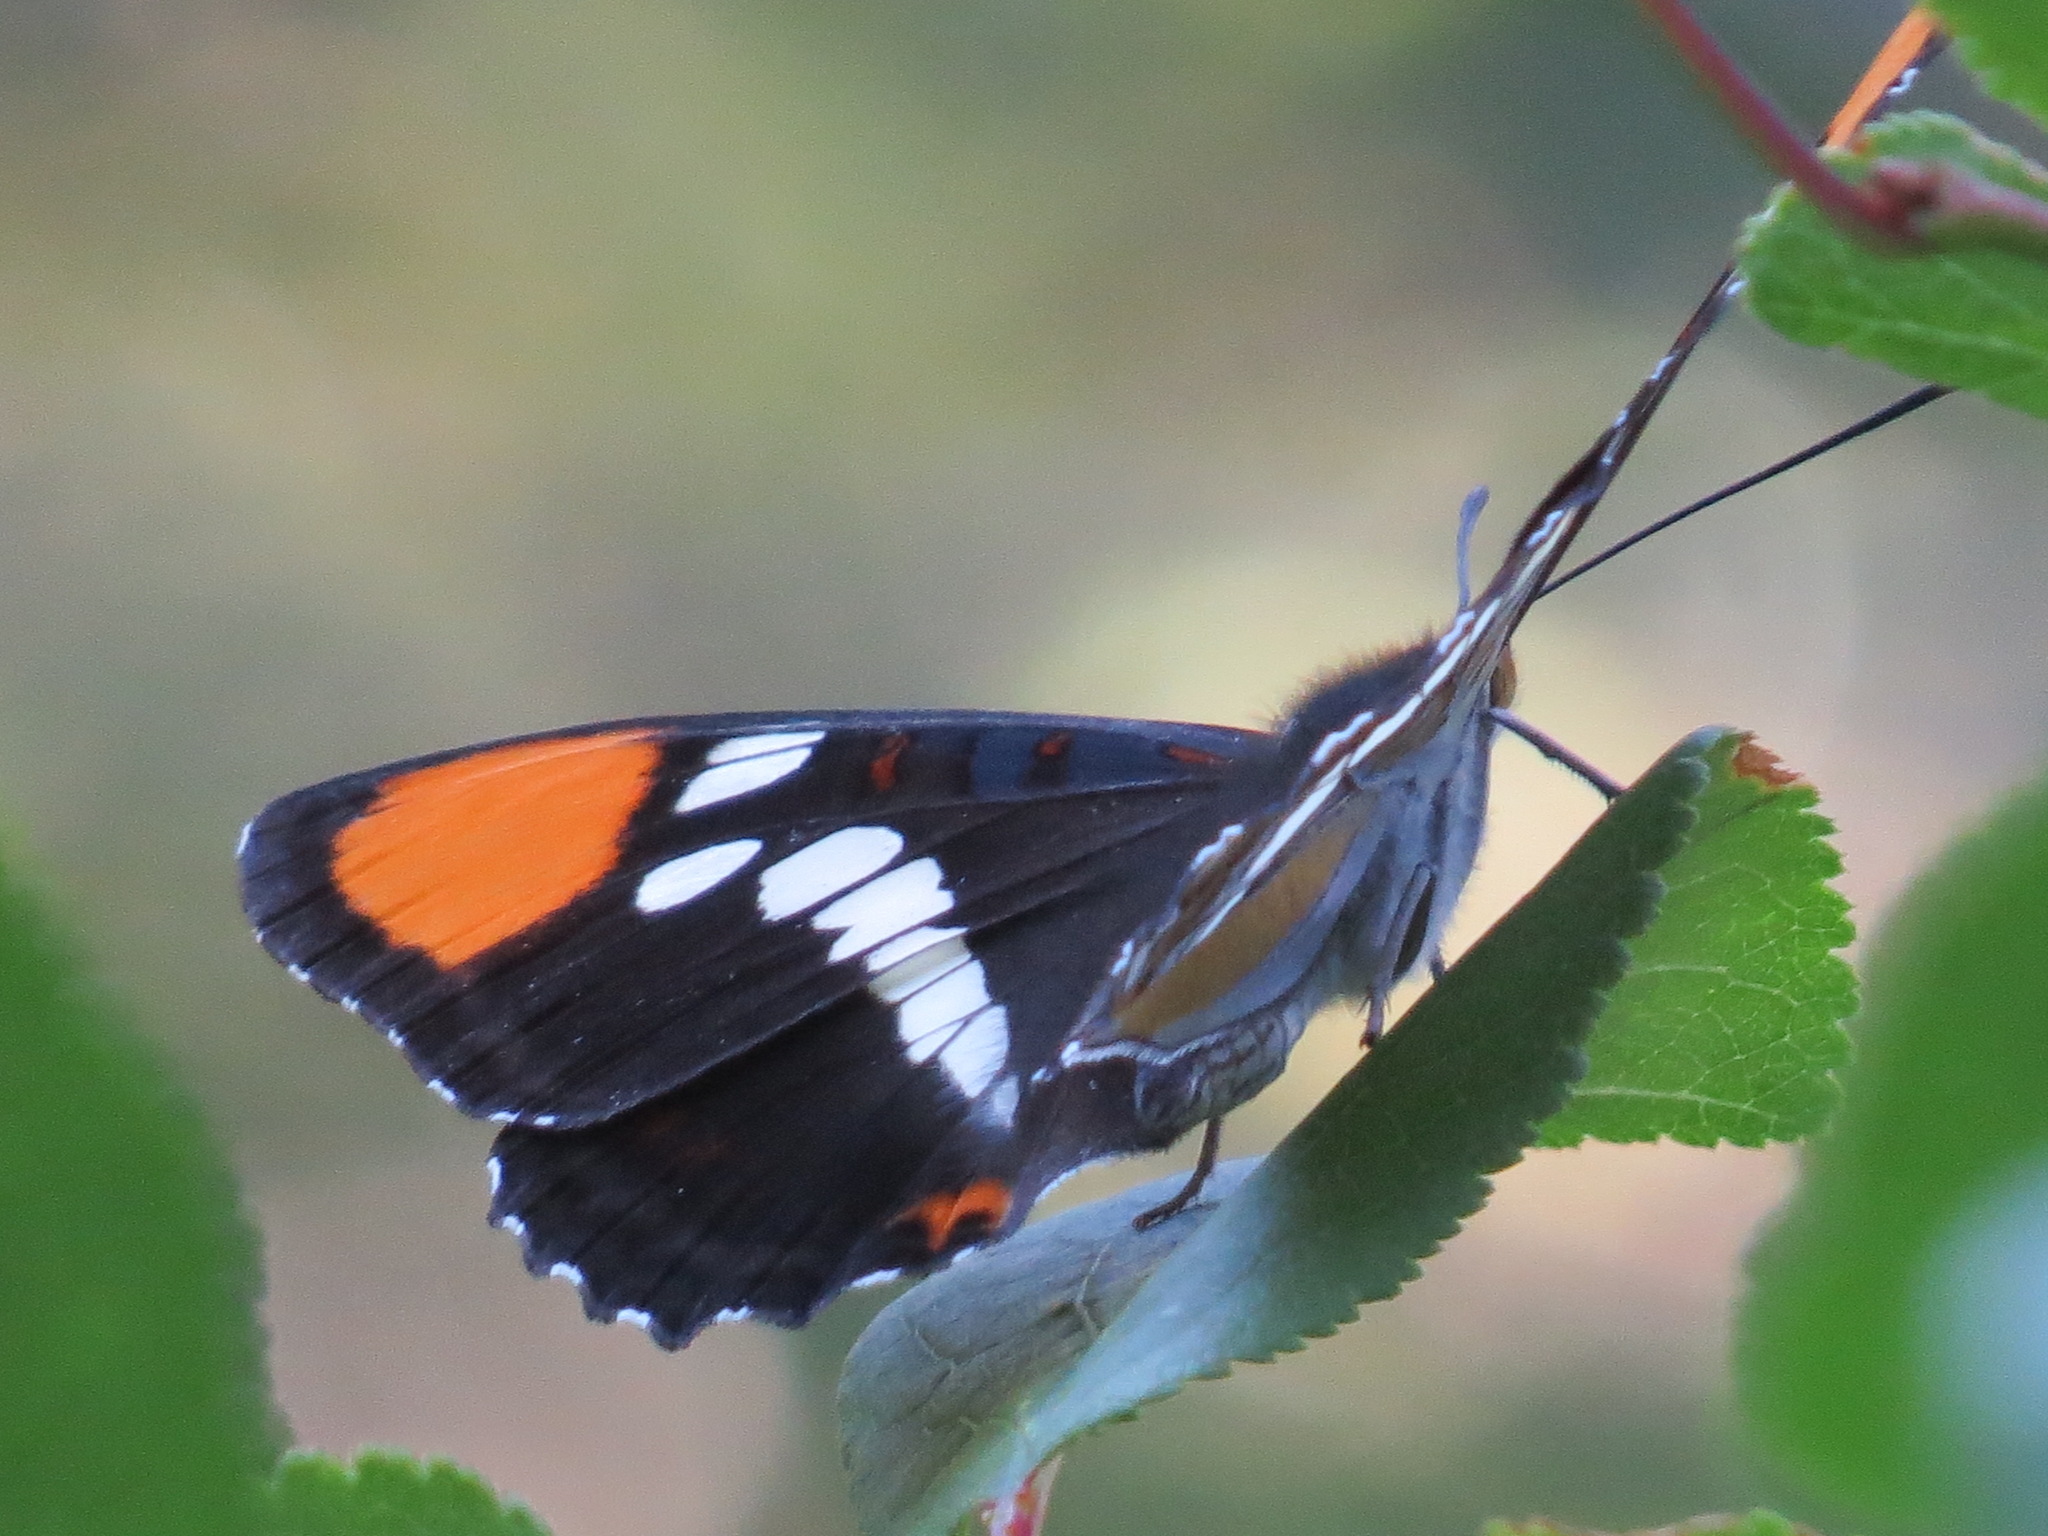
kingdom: Animalia
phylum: Arthropoda
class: Insecta
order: Lepidoptera
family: Nymphalidae
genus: Limenitis
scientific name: Limenitis bredowii
